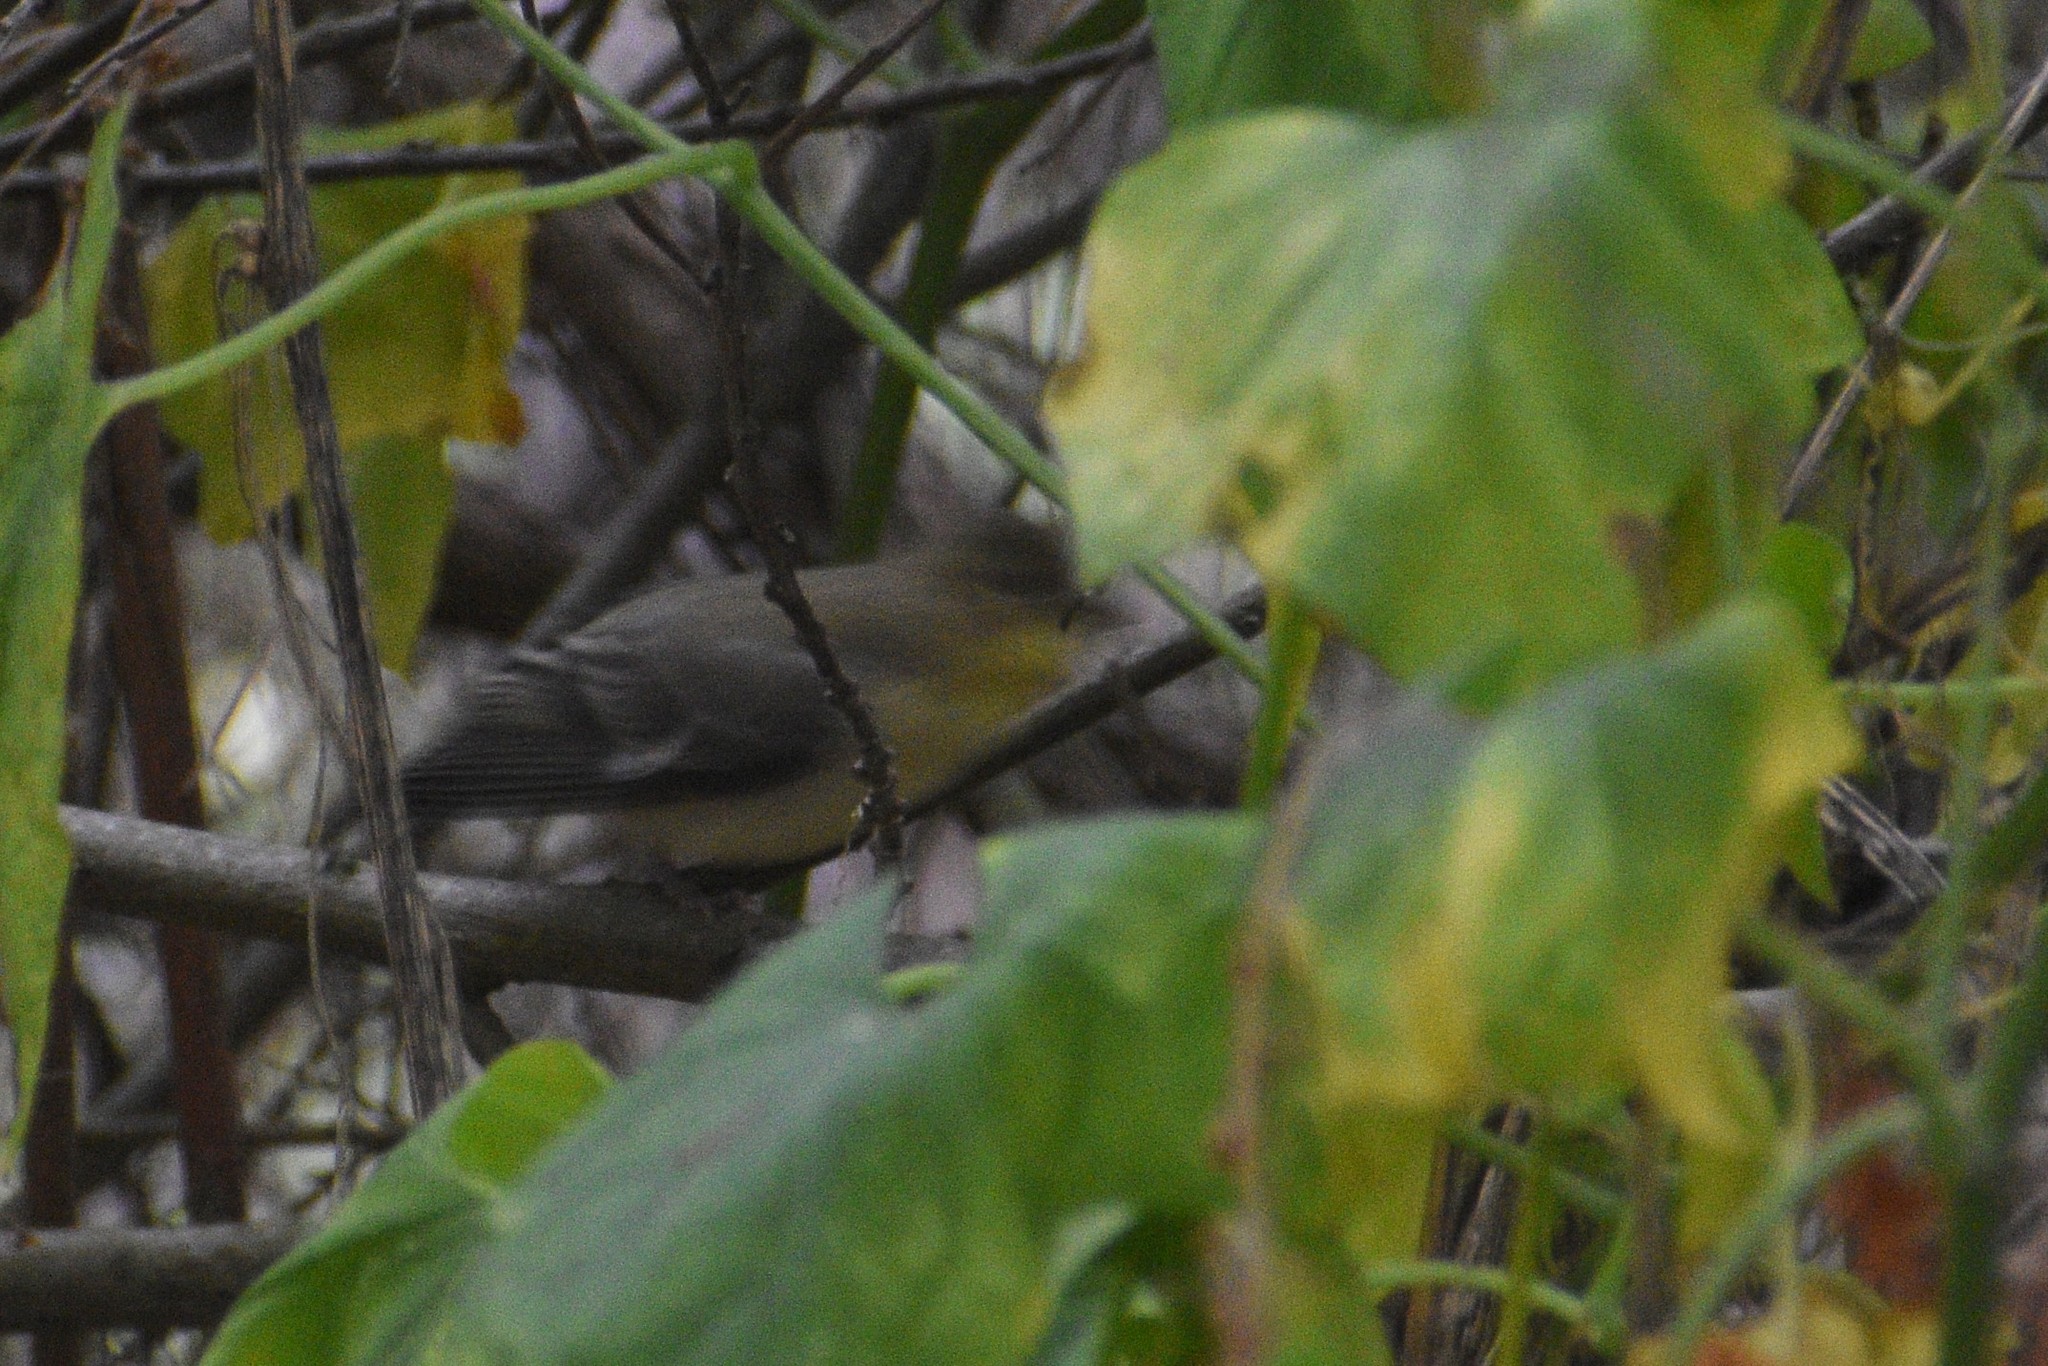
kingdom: Animalia
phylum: Chordata
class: Aves
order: Passeriformes
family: Fringillidae
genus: Spinus
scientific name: Spinus psaltria
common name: Lesser goldfinch
